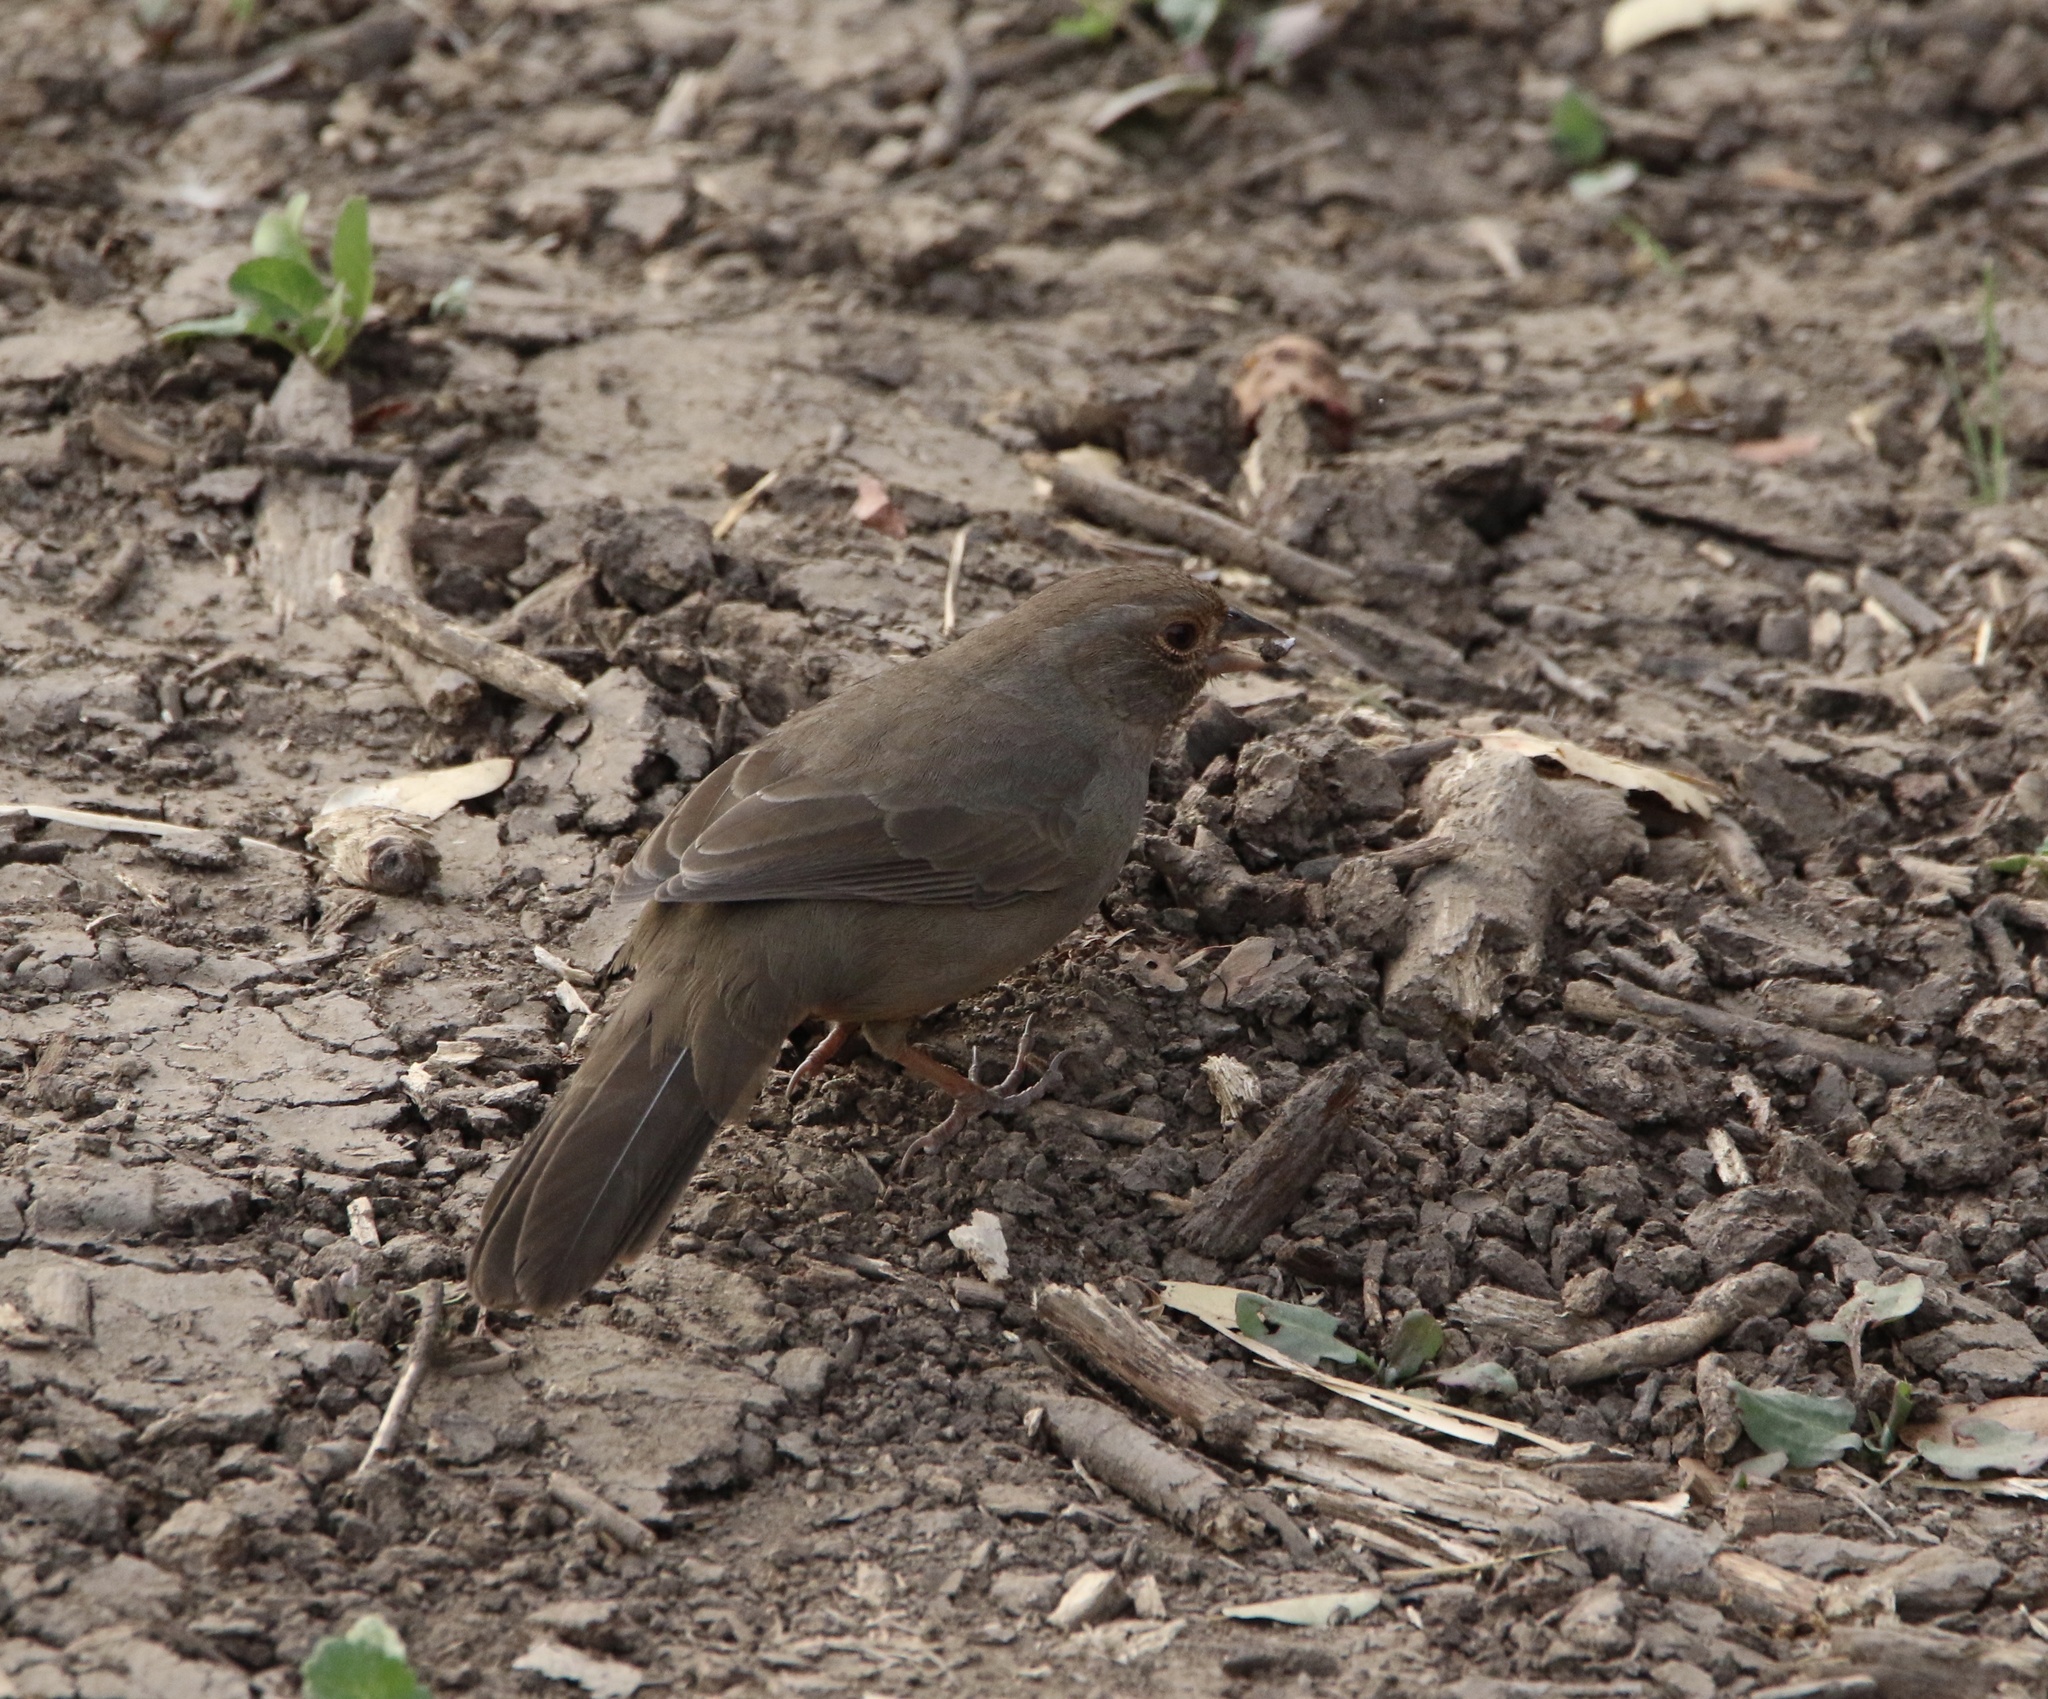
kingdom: Animalia
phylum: Chordata
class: Aves
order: Passeriformes
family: Passerellidae
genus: Melozone
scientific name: Melozone crissalis
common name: California towhee
